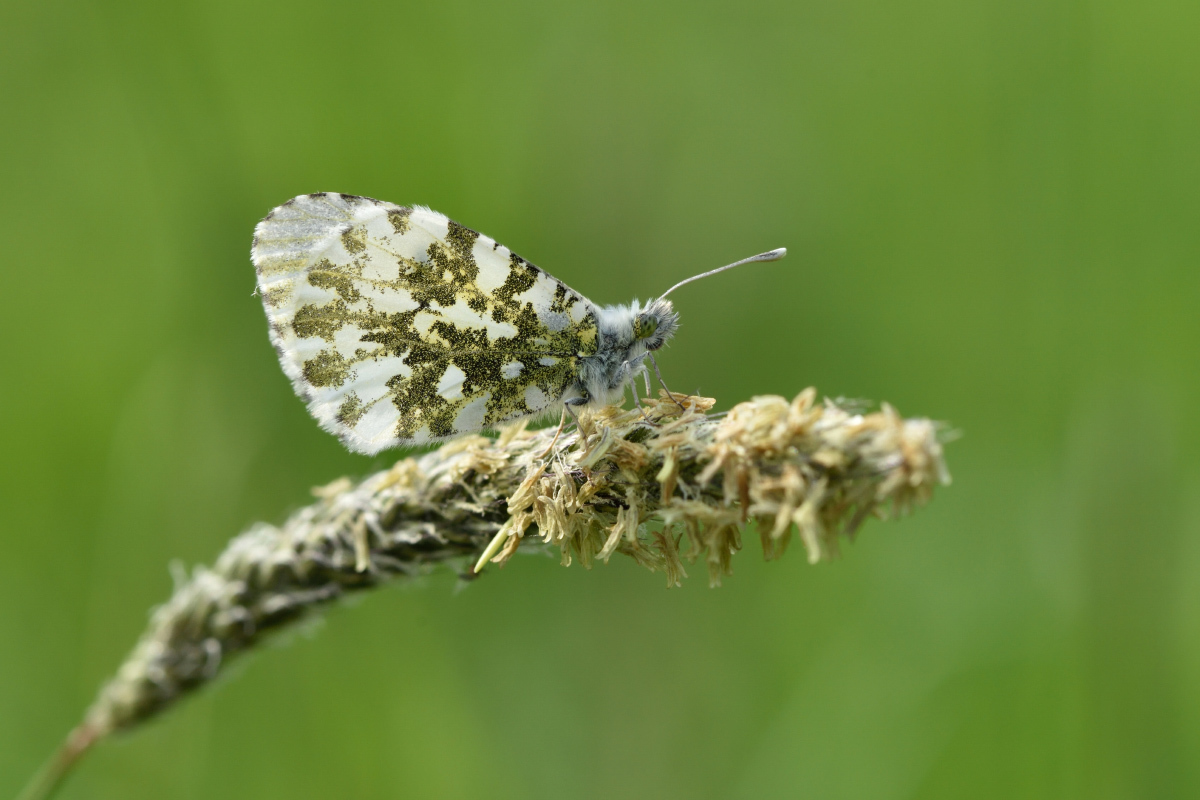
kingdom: Animalia
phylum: Arthropoda
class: Insecta
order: Lepidoptera
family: Pieridae
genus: Anthocharis
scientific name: Anthocharis cardamines
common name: Orange-tip
